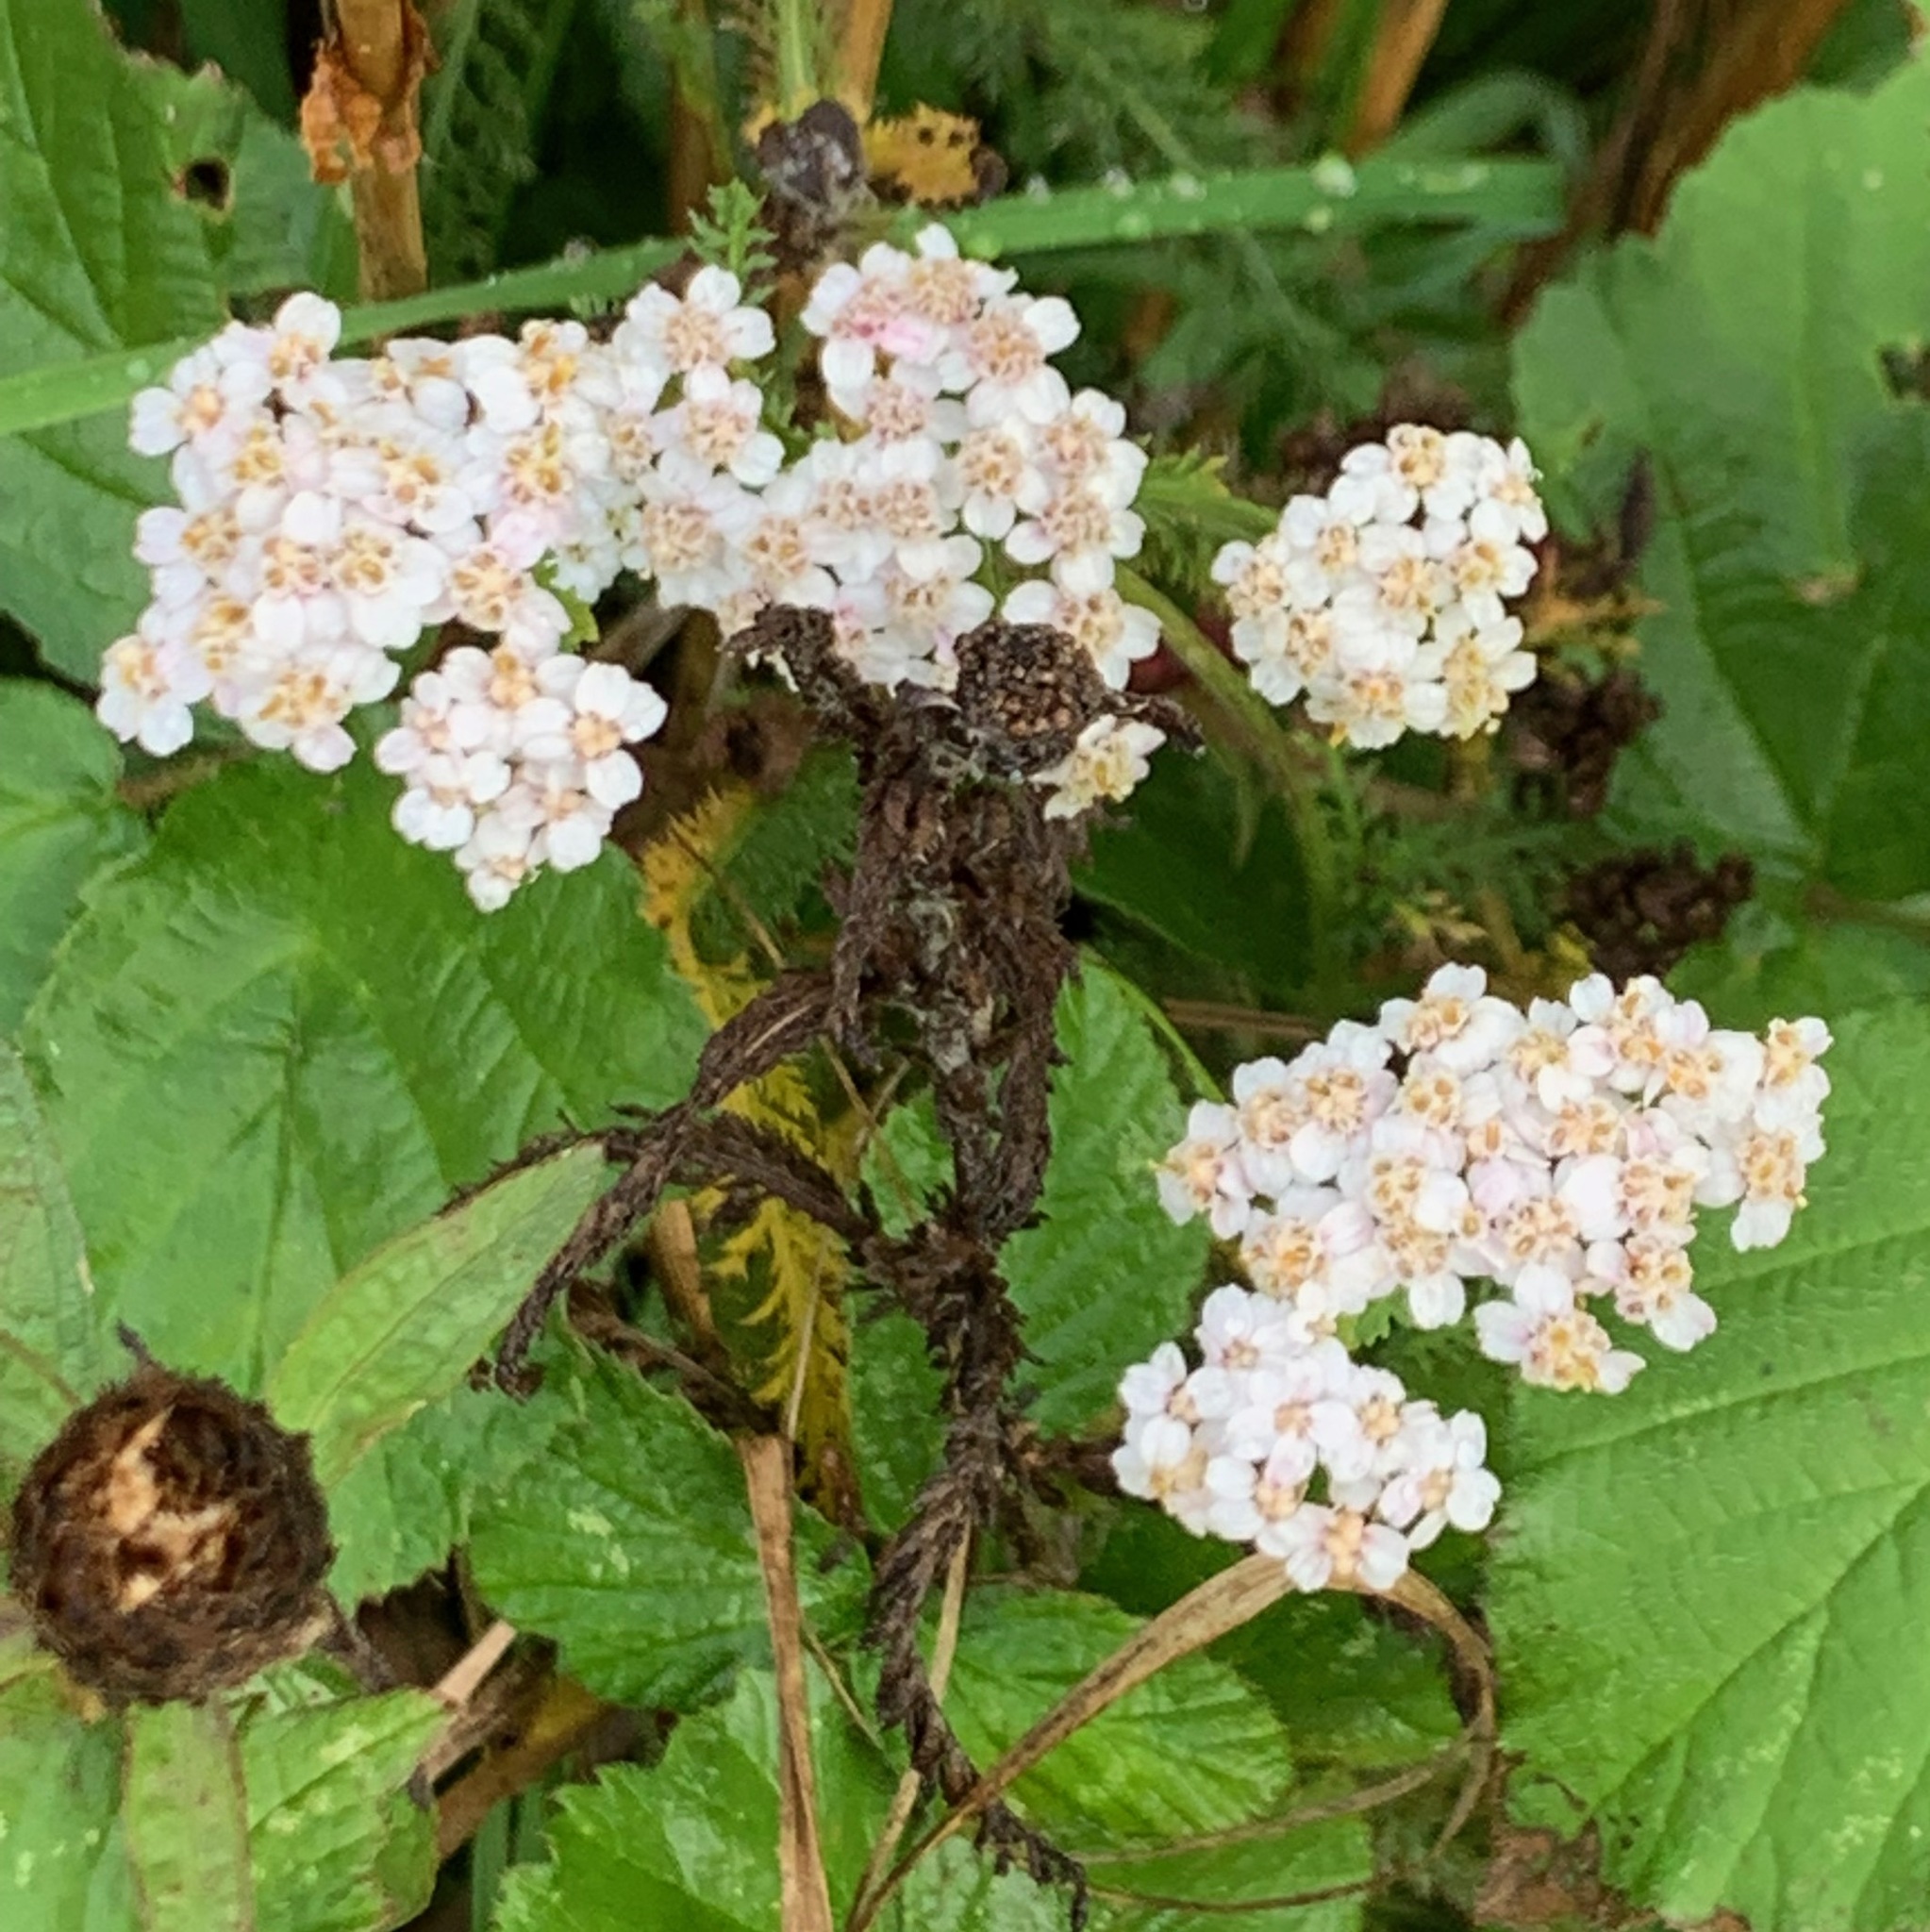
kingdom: Plantae
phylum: Tracheophyta
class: Magnoliopsida
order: Asterales
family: Asteraceae
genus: Achillea
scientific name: Achillea millefolium
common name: Yarrow
